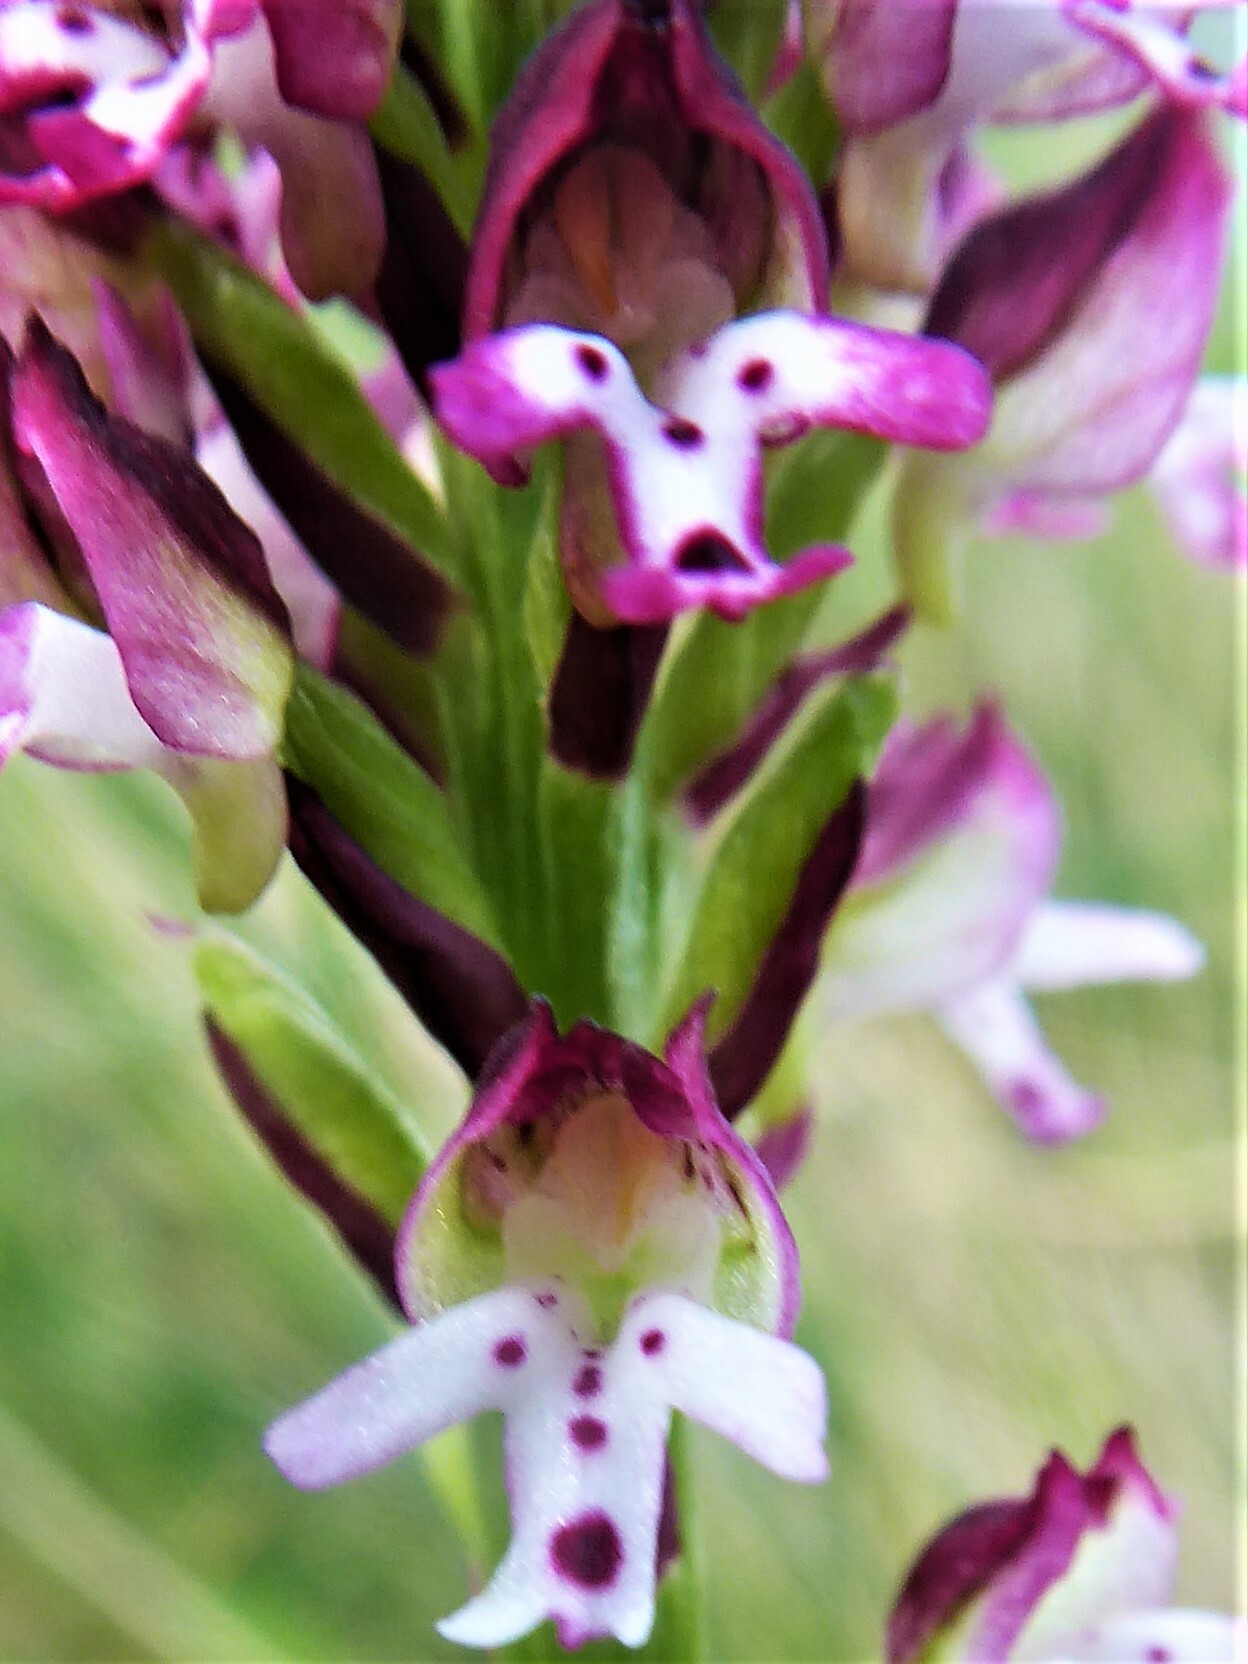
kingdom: Plantae
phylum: Tracheophyta
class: Liliopsida
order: Asparagales
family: Orchidaceae
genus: Neotinea
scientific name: Neotinea ustulata
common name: Burnt orchid
